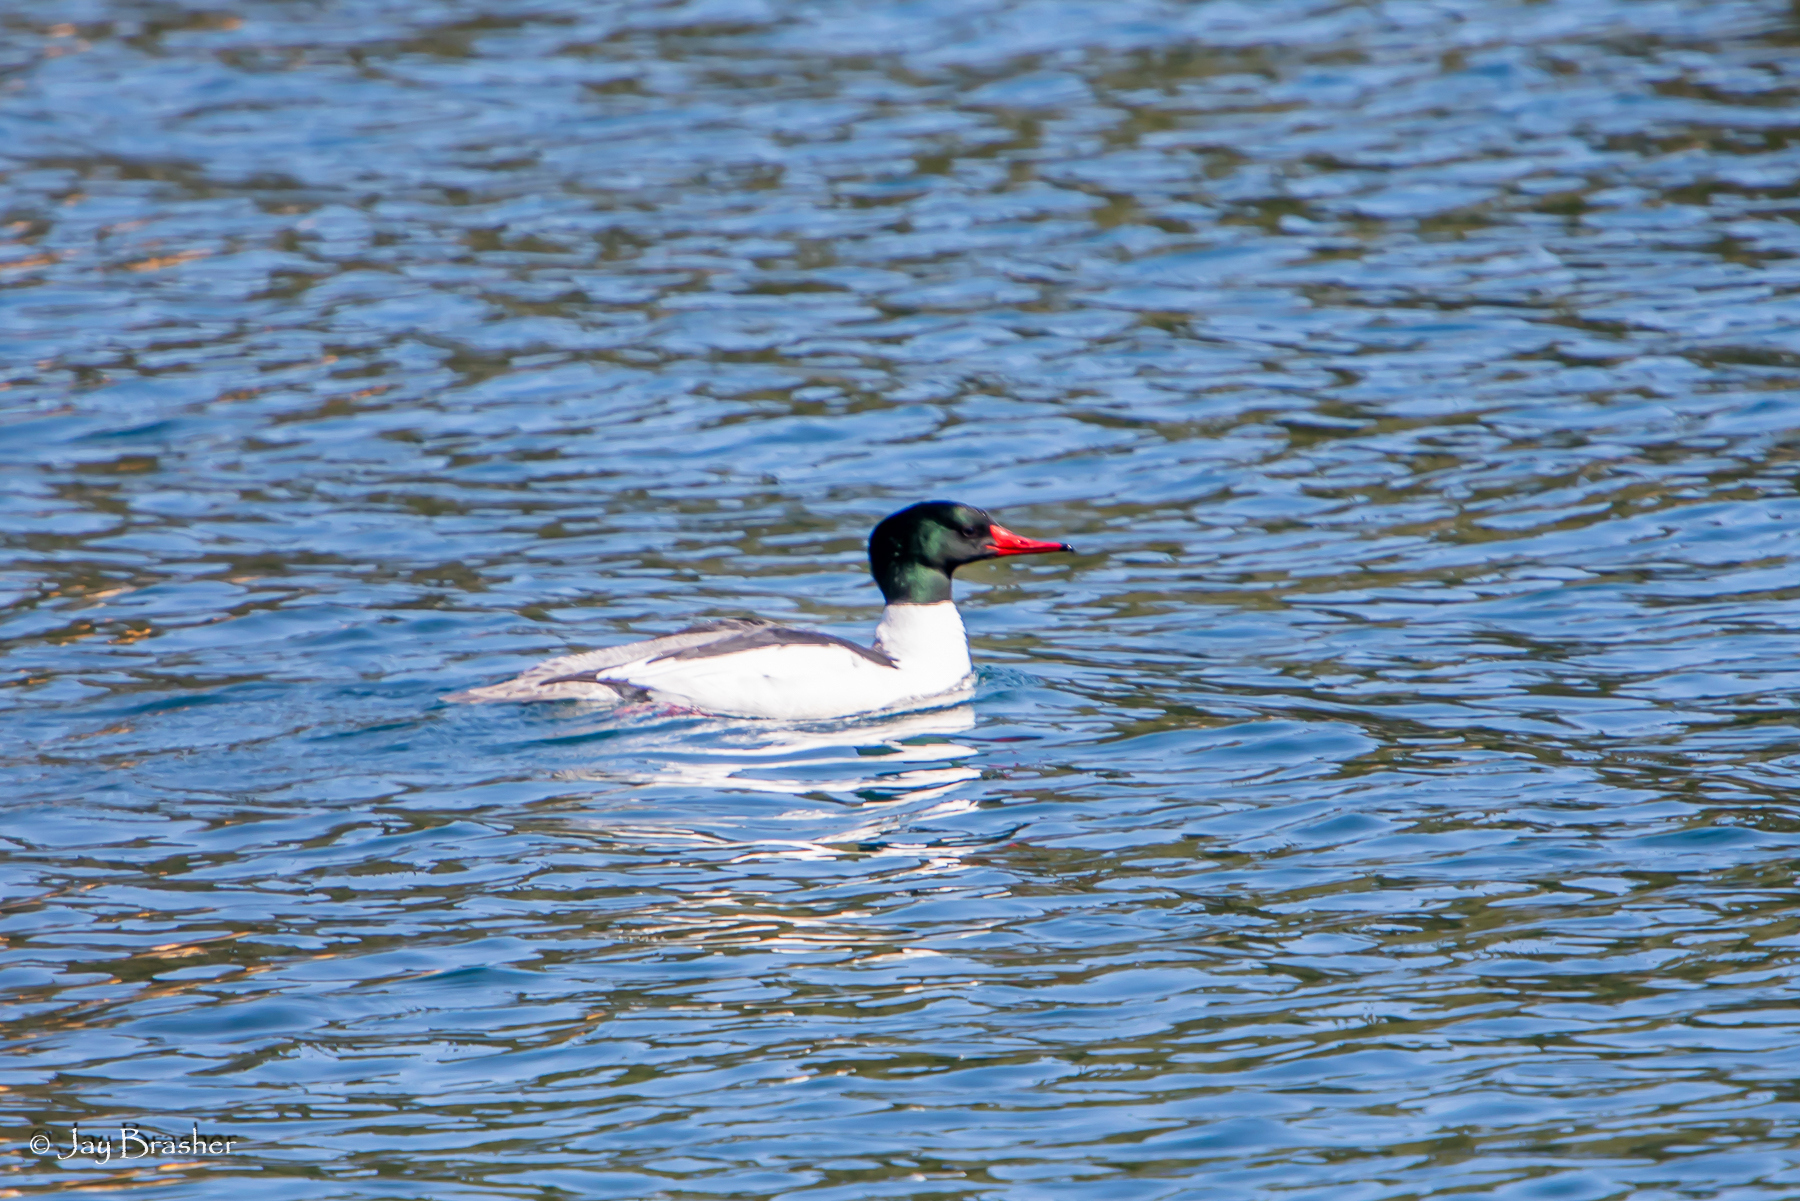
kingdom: Animalia
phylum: Chordata
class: Aves
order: Anseriformes
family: Anatidae
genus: Mergus
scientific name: Mergus merganser
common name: Common merganser
